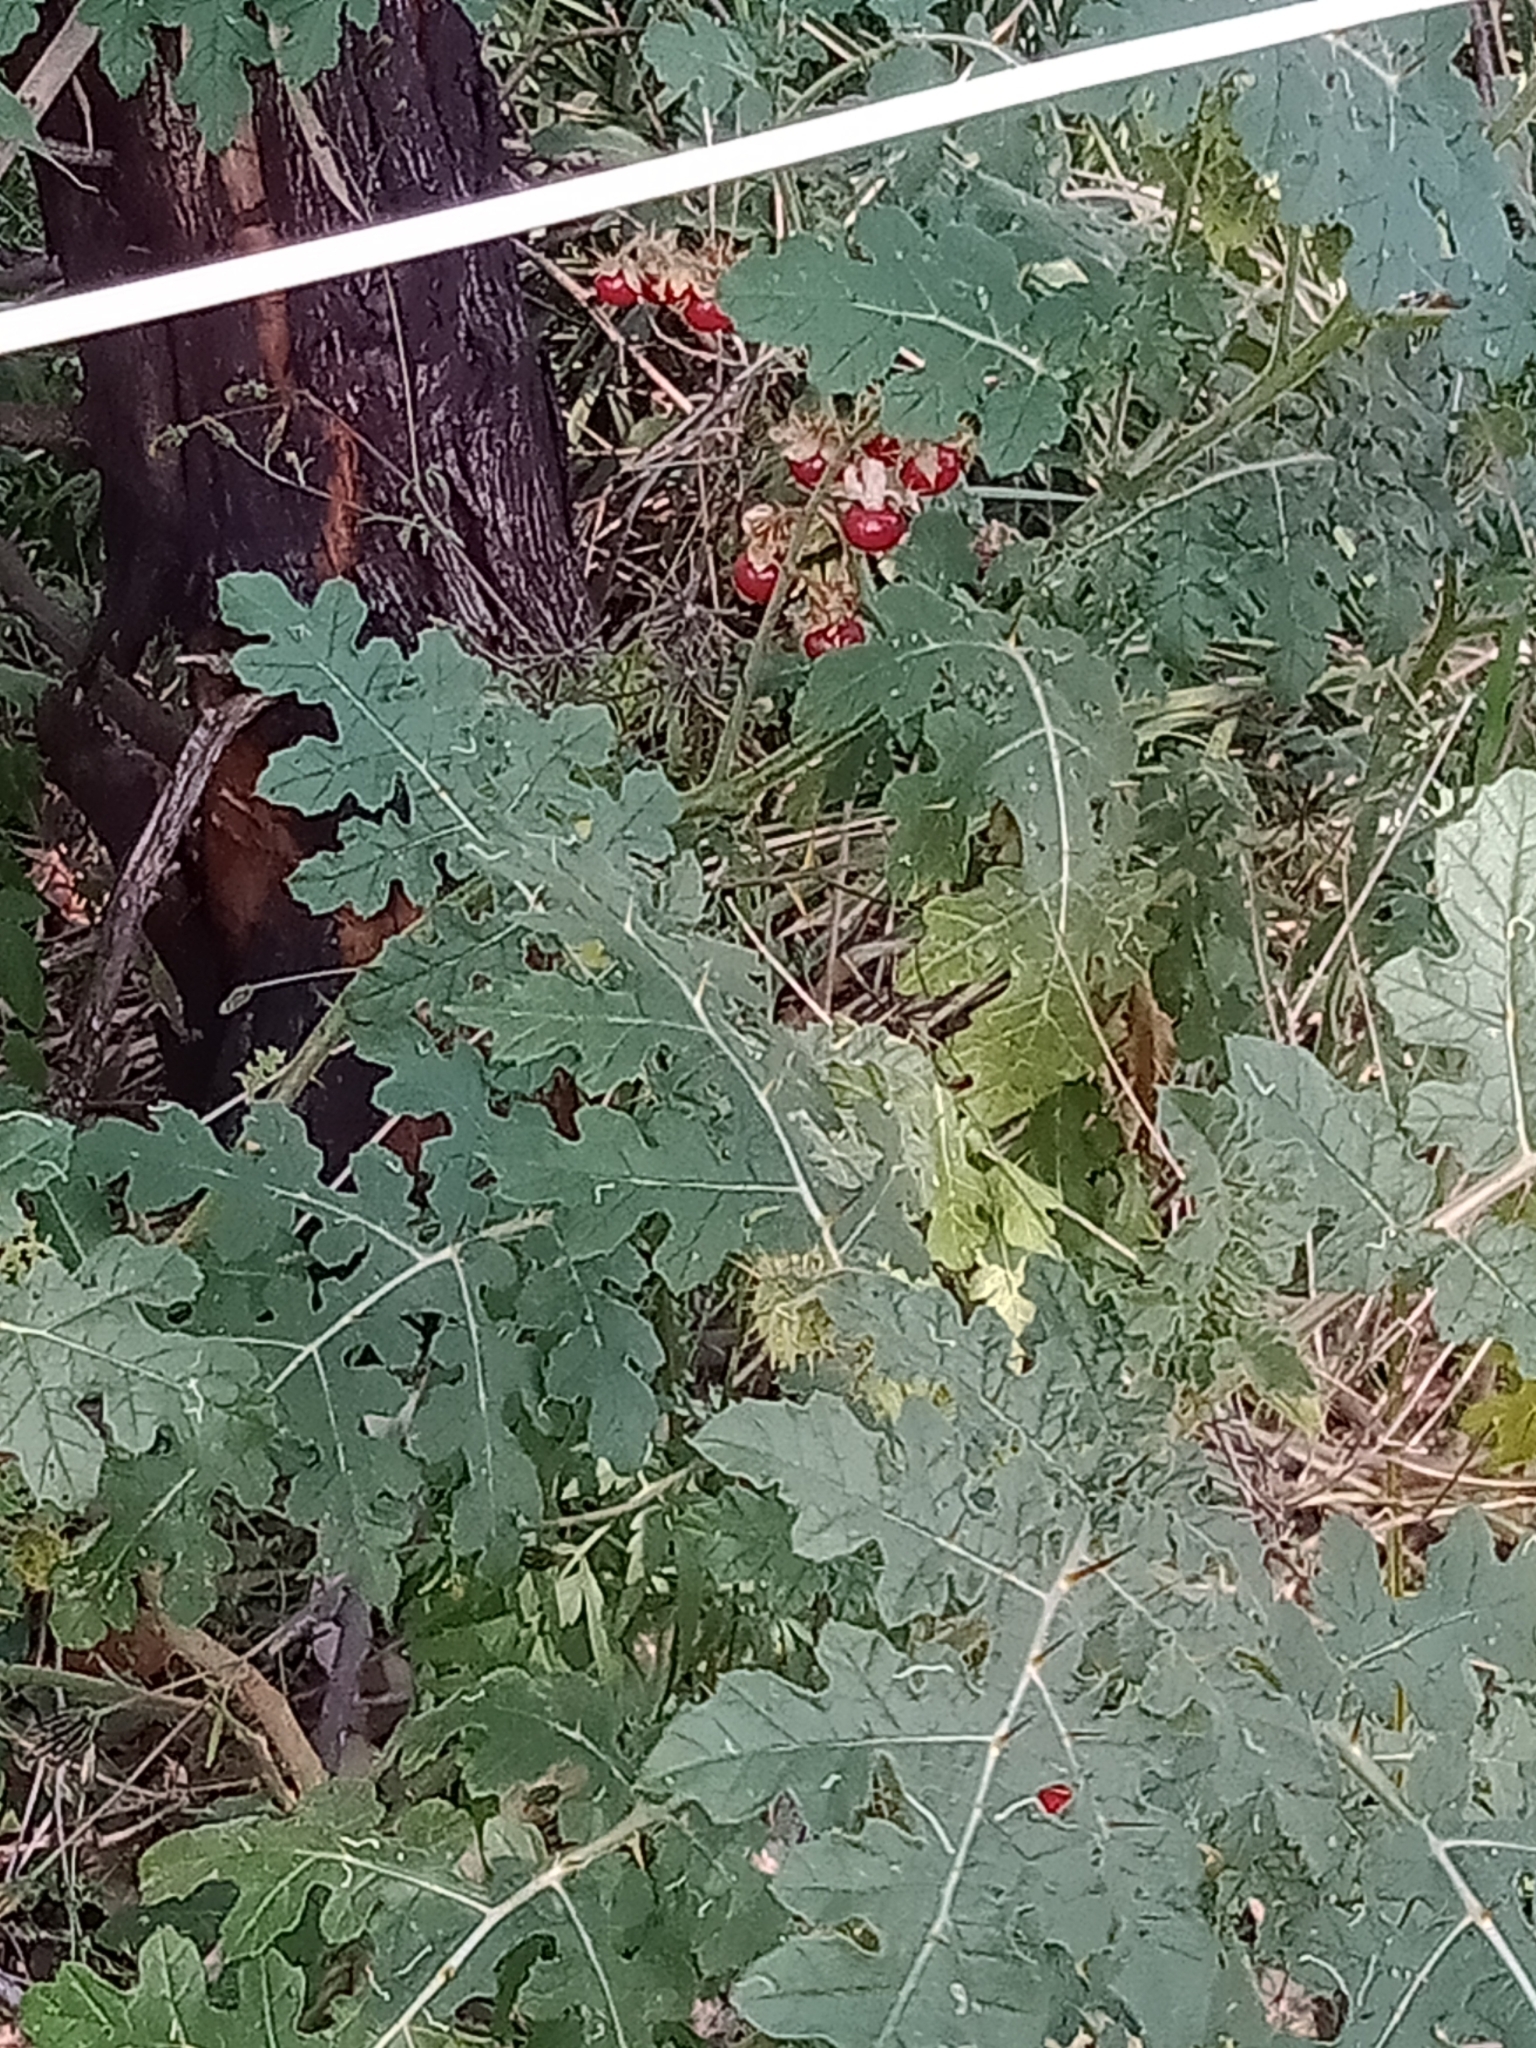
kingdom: Plantae
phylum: Tracheophyta
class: Magnoliopsida
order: Solanales
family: Solanaceae
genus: Solanum
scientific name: Solanum sisymbriifolium
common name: Red buffalo-bur
